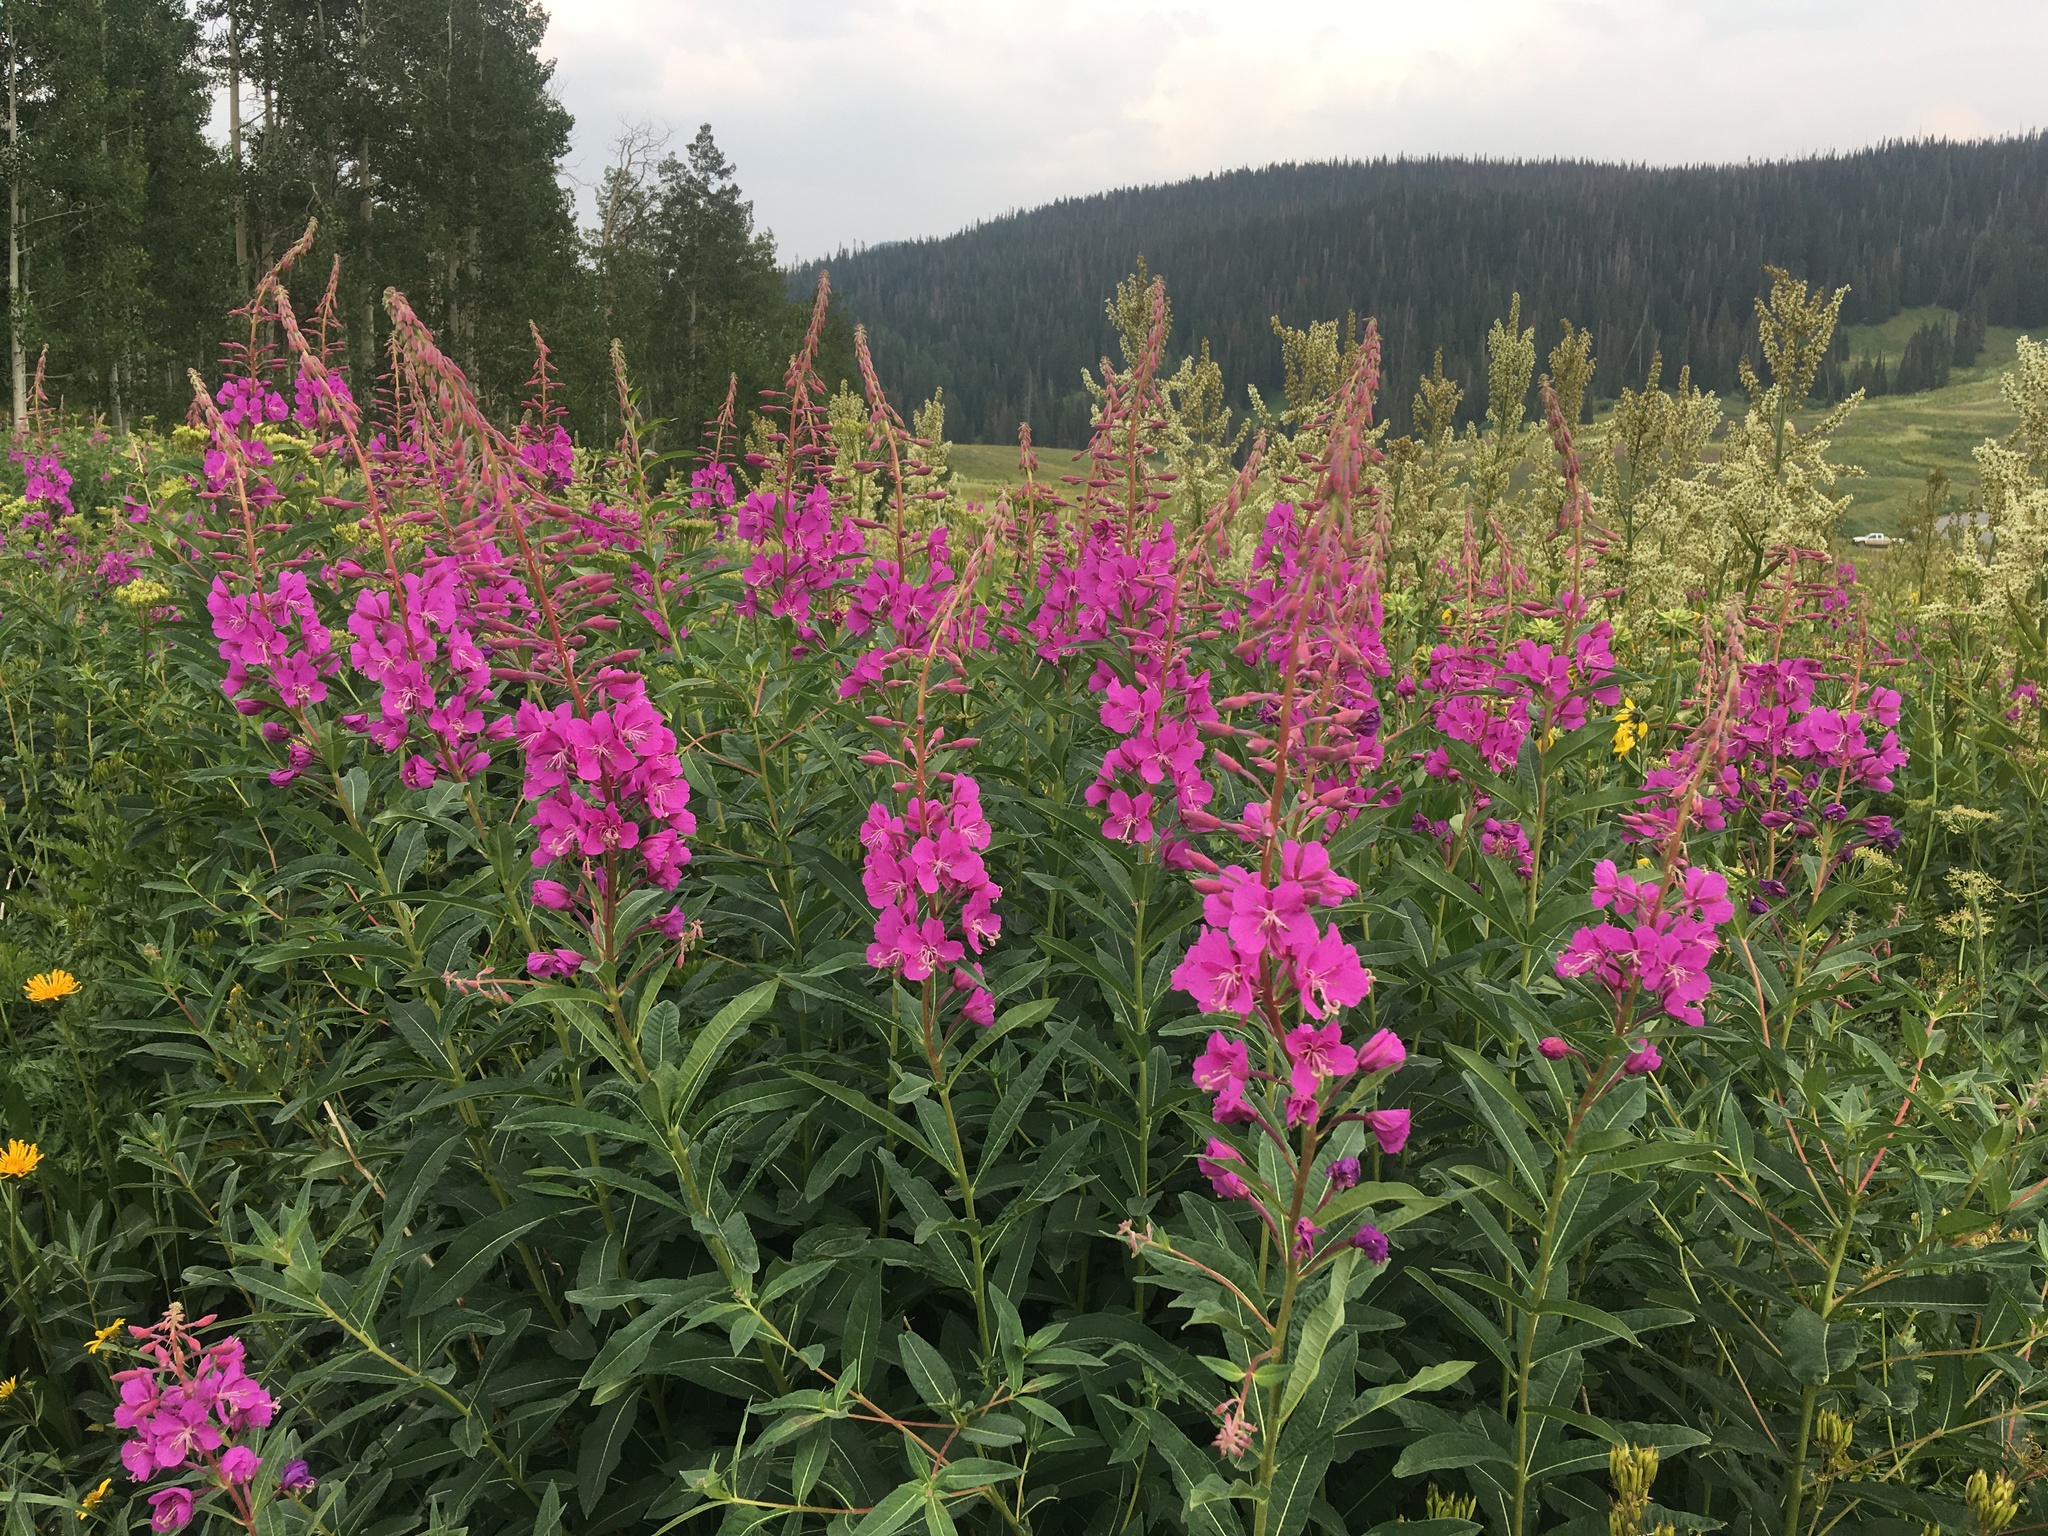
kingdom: Plantae
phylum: Tracheophyta
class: Magnoliopsida
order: Myrtales
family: Onagraceae
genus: Chamaenerion
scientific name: Chamaenerion angustifolium
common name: Fireweed
